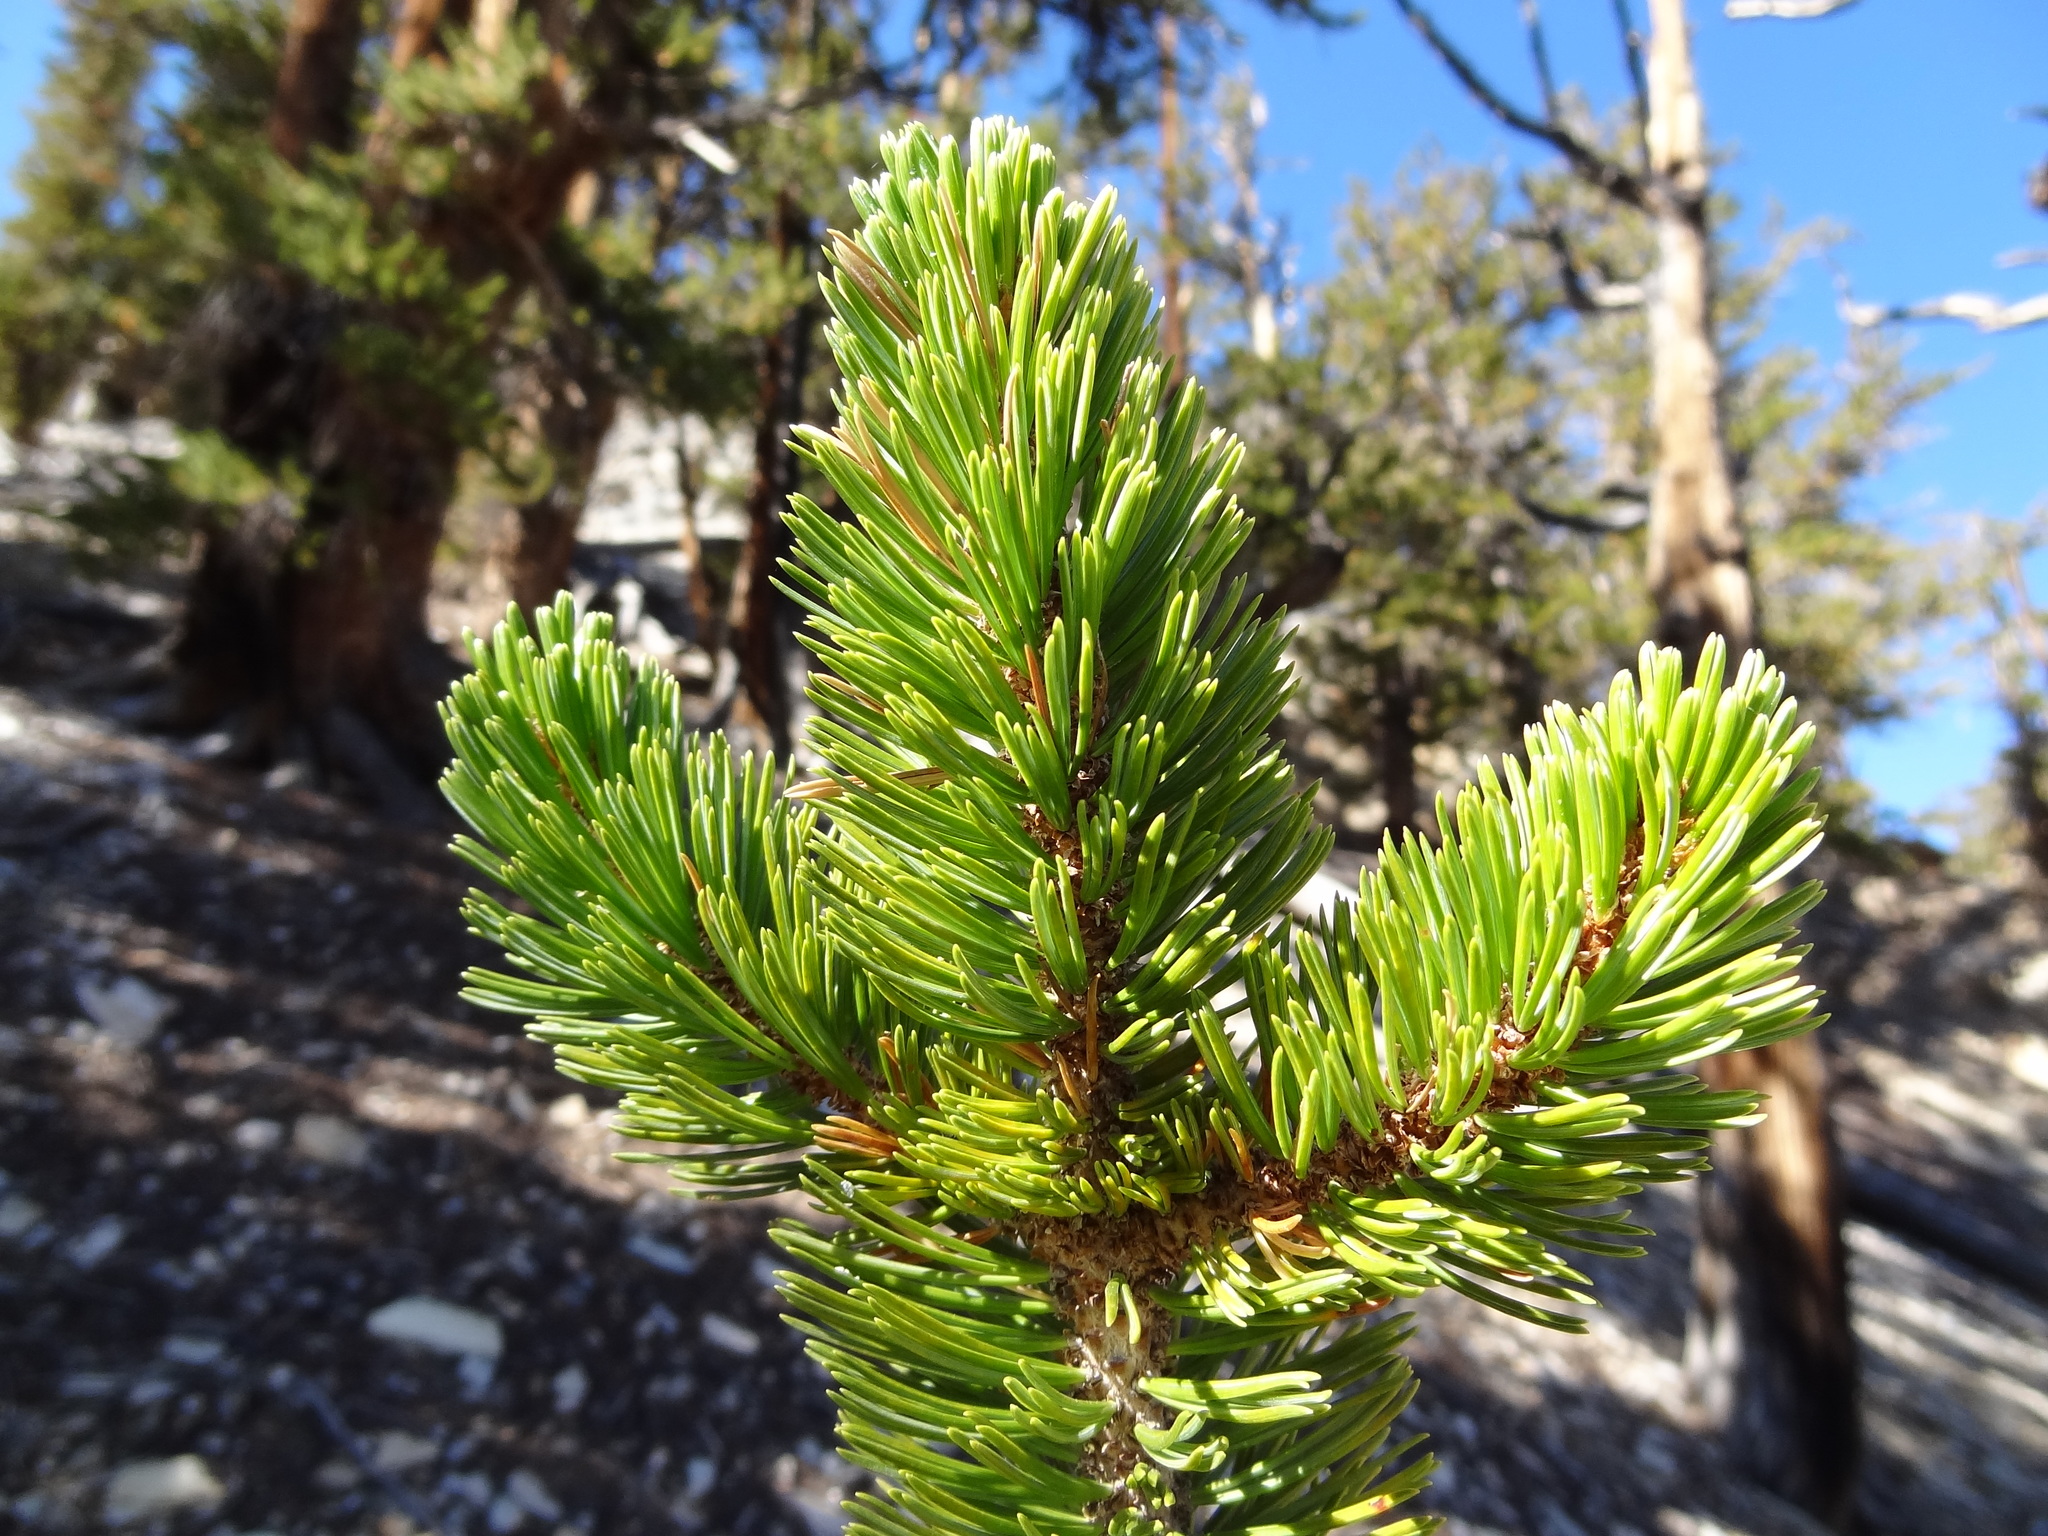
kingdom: Plantae
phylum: Tracheophyta
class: Pinopsida
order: Pinales
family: Pinaceae
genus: Pinus
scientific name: Pinus longaeva
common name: Intermountain bristlecone pine
